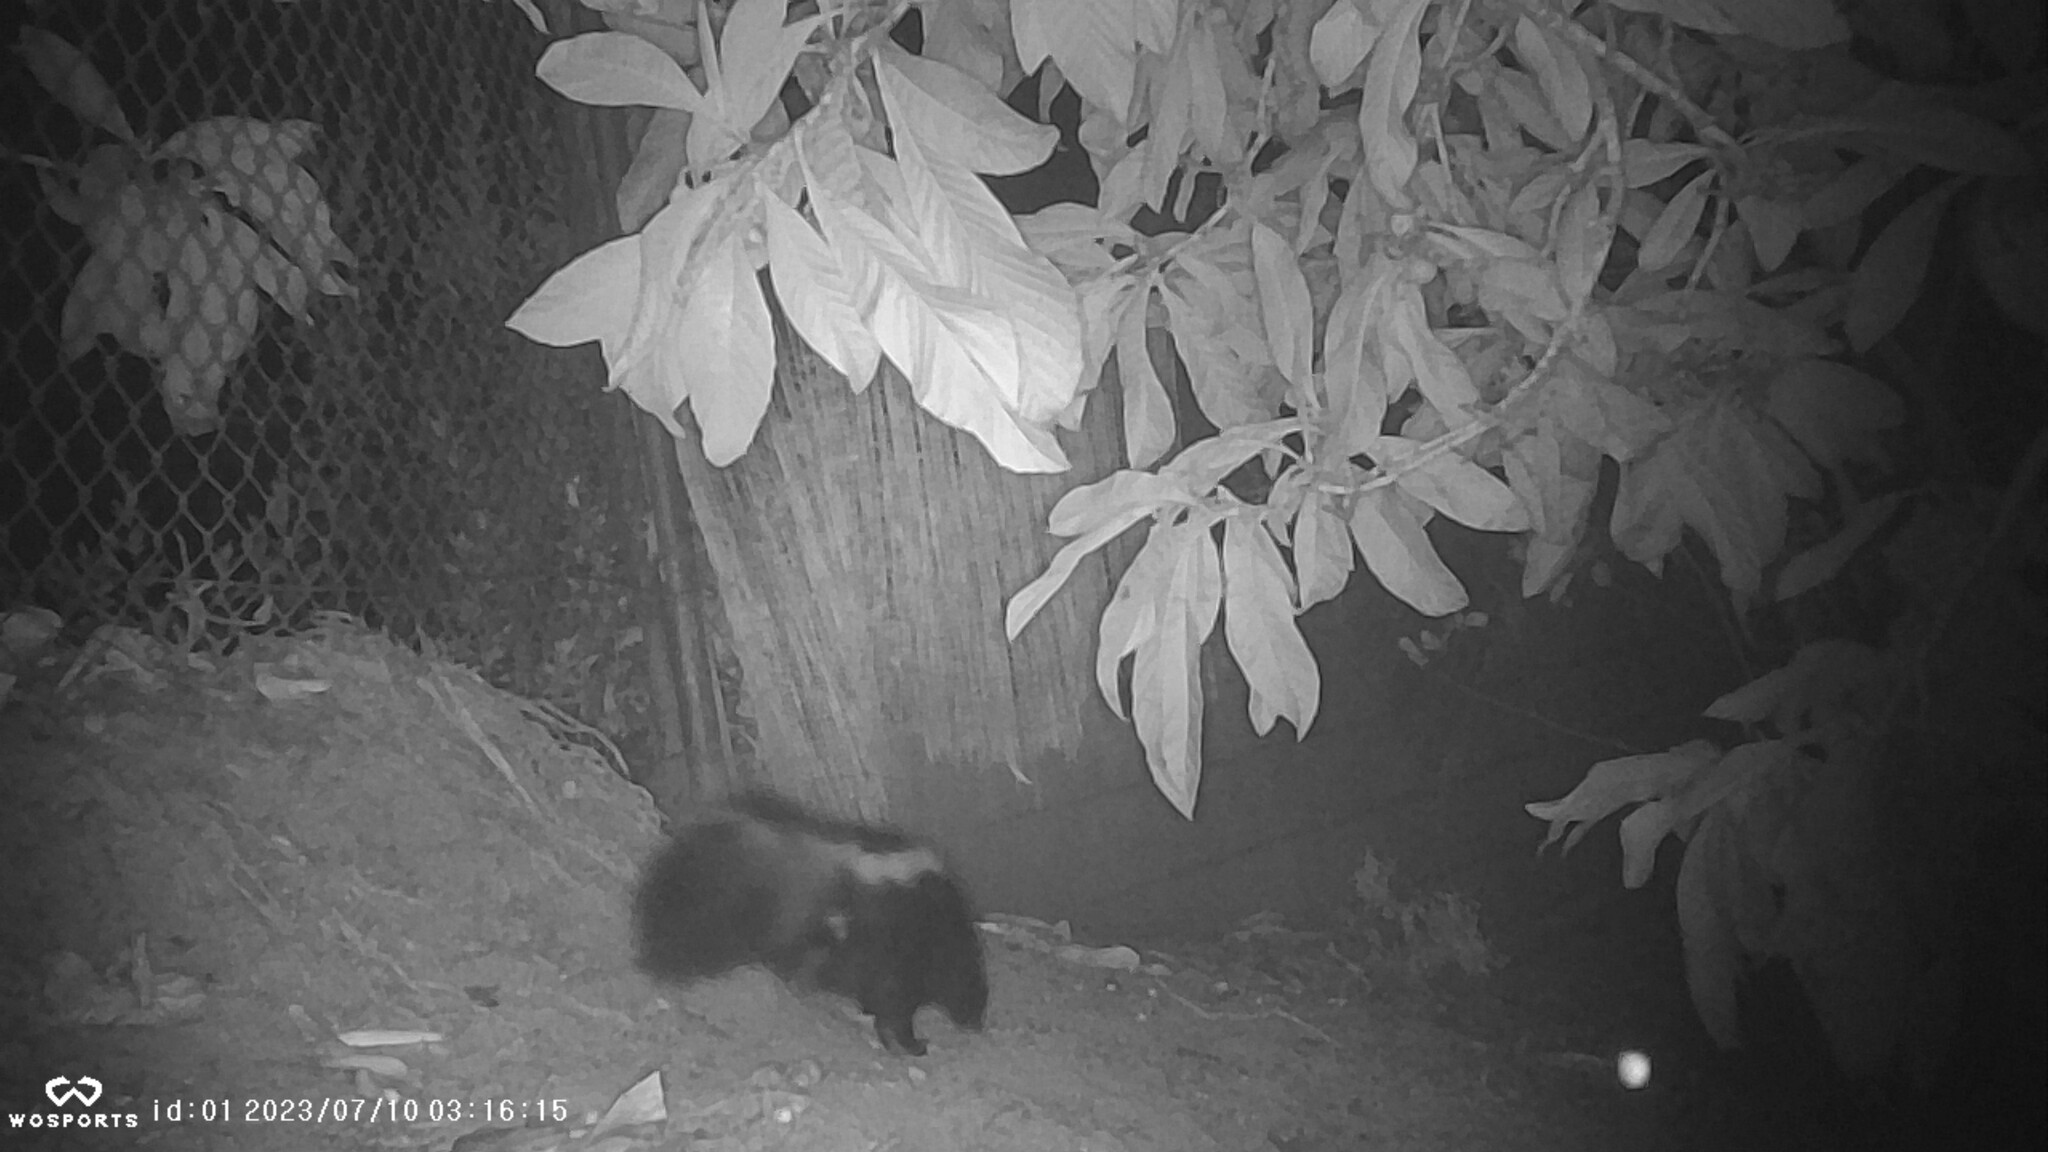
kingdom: Animalia
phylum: Chordata
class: Mammalia
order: Carnivora
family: Mephitidae
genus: Mephitis
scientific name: Mephitis mephitis
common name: Striped skunk
